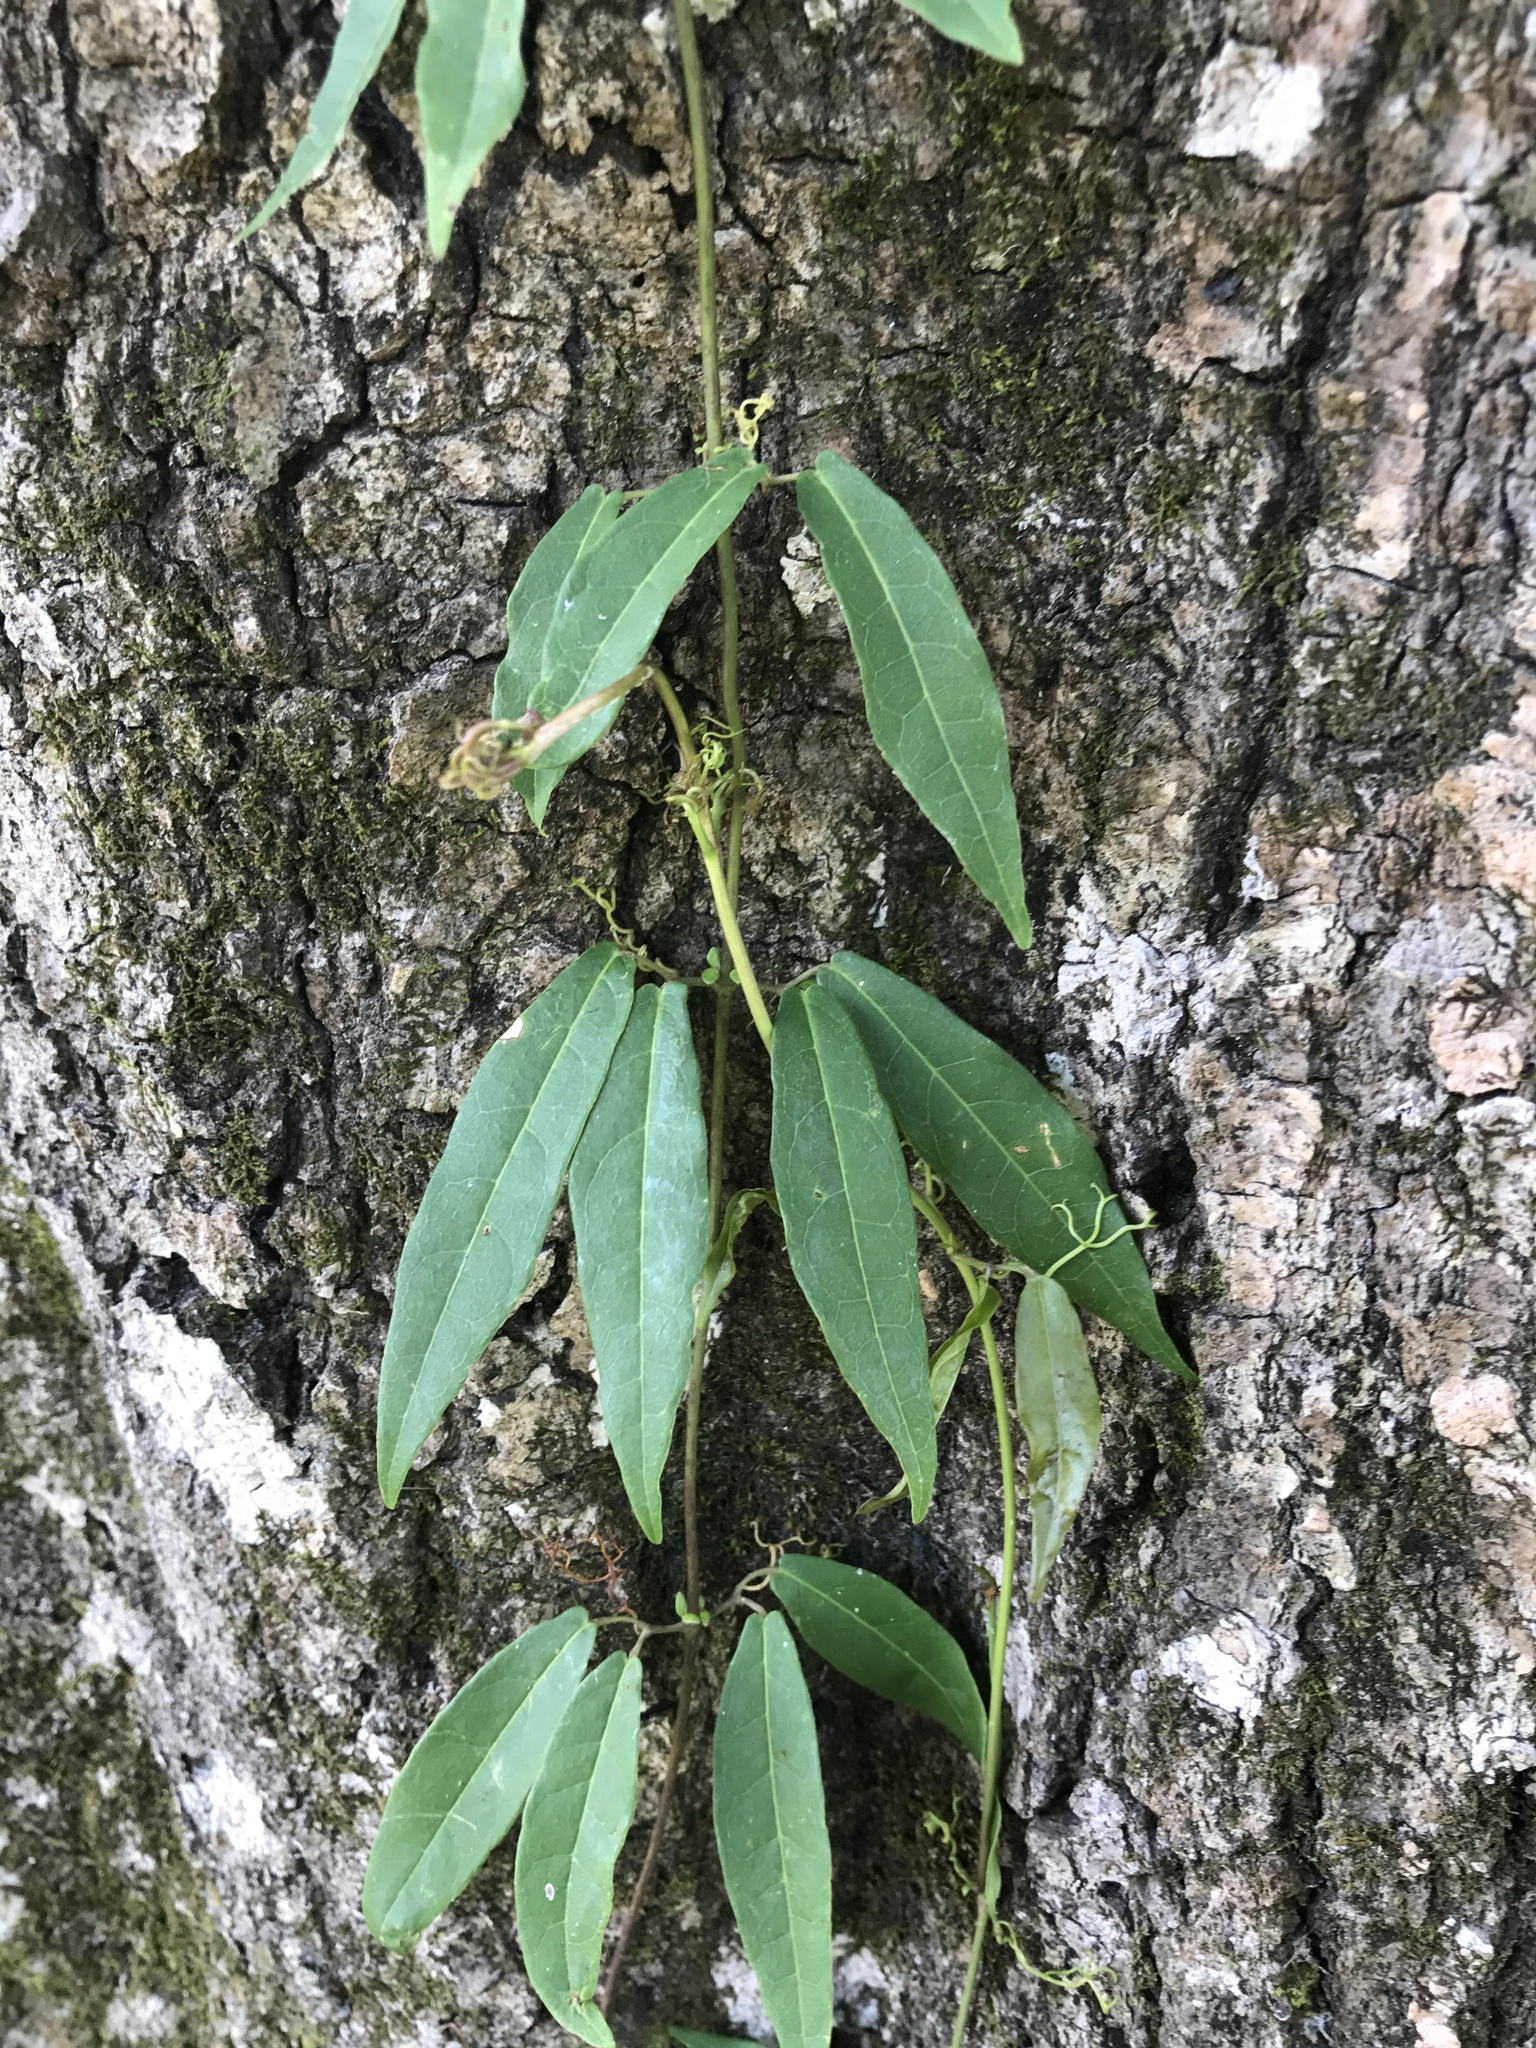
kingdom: Plantae
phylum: Tracheophyta
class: Magnoliopsida
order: Lamiales
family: Bignoniaceae
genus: Bignonia
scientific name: Bignonia capreolata
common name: Crossvine
